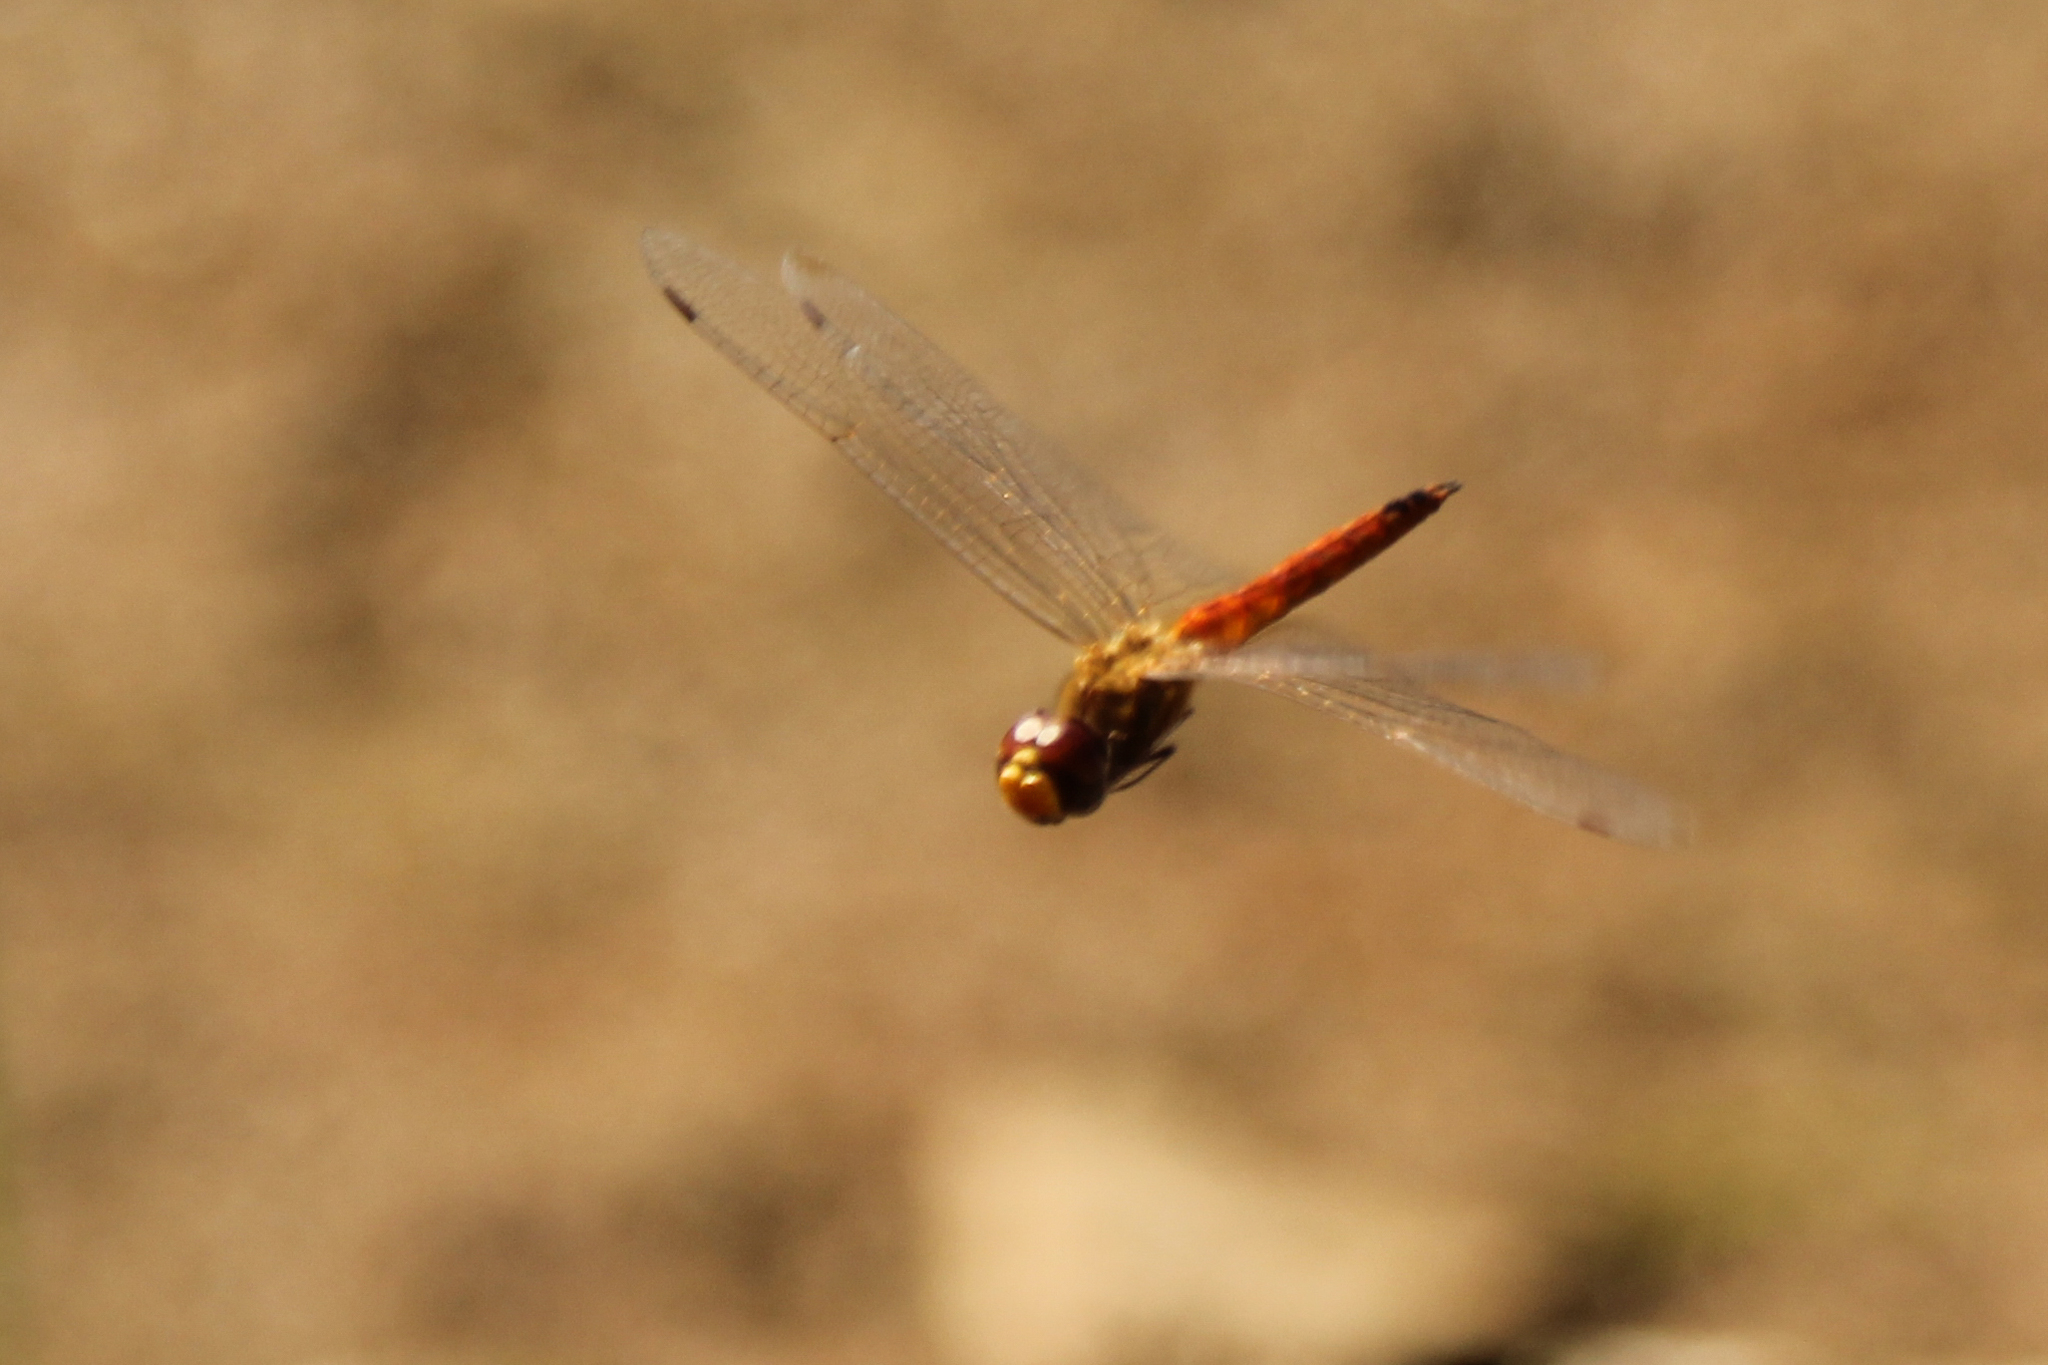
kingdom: Animalia
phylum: Arthropoda
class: Insecta
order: Odonata
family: Libellulidae
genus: Pantala
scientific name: Pantala flavescens
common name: Wandering glider
